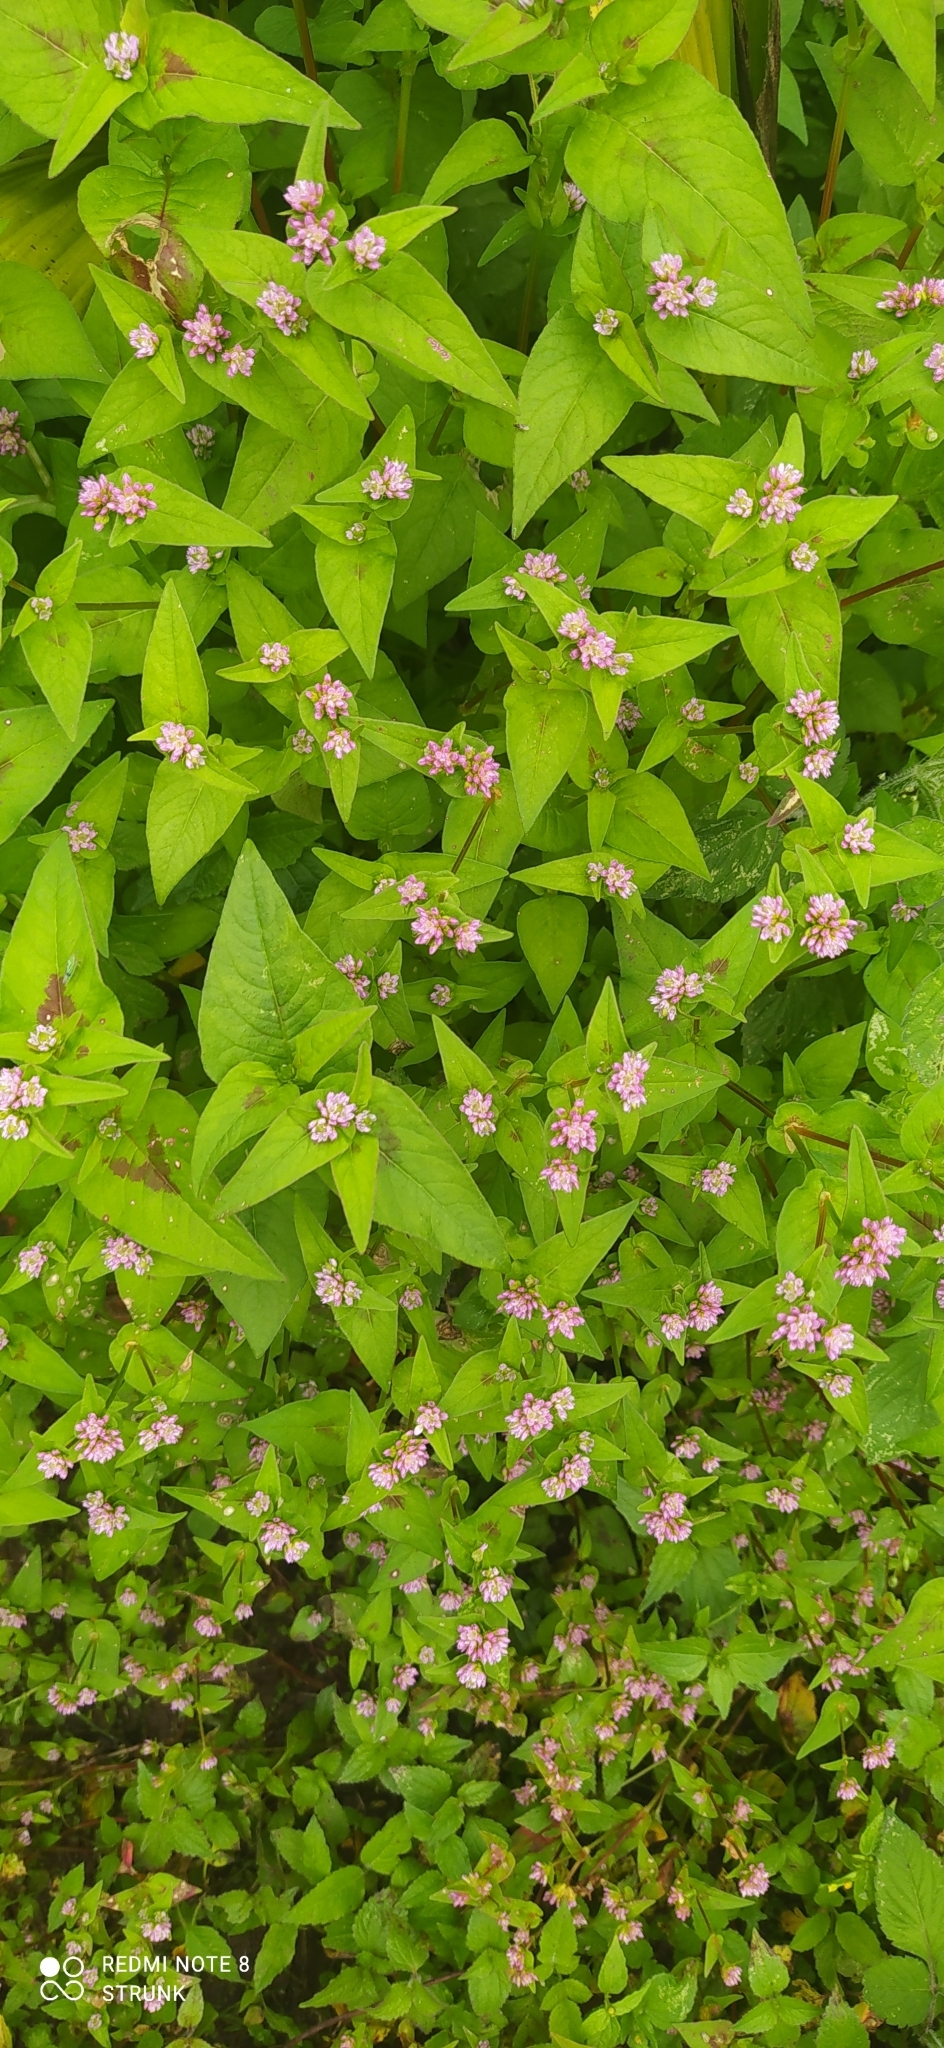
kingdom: Plantae
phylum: Tracheophyta
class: Magnoliopsida
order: Caryophyllales
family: Polygonaceae
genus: Persicaria
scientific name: Persicaria nepalensis
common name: Nepal persicaria
